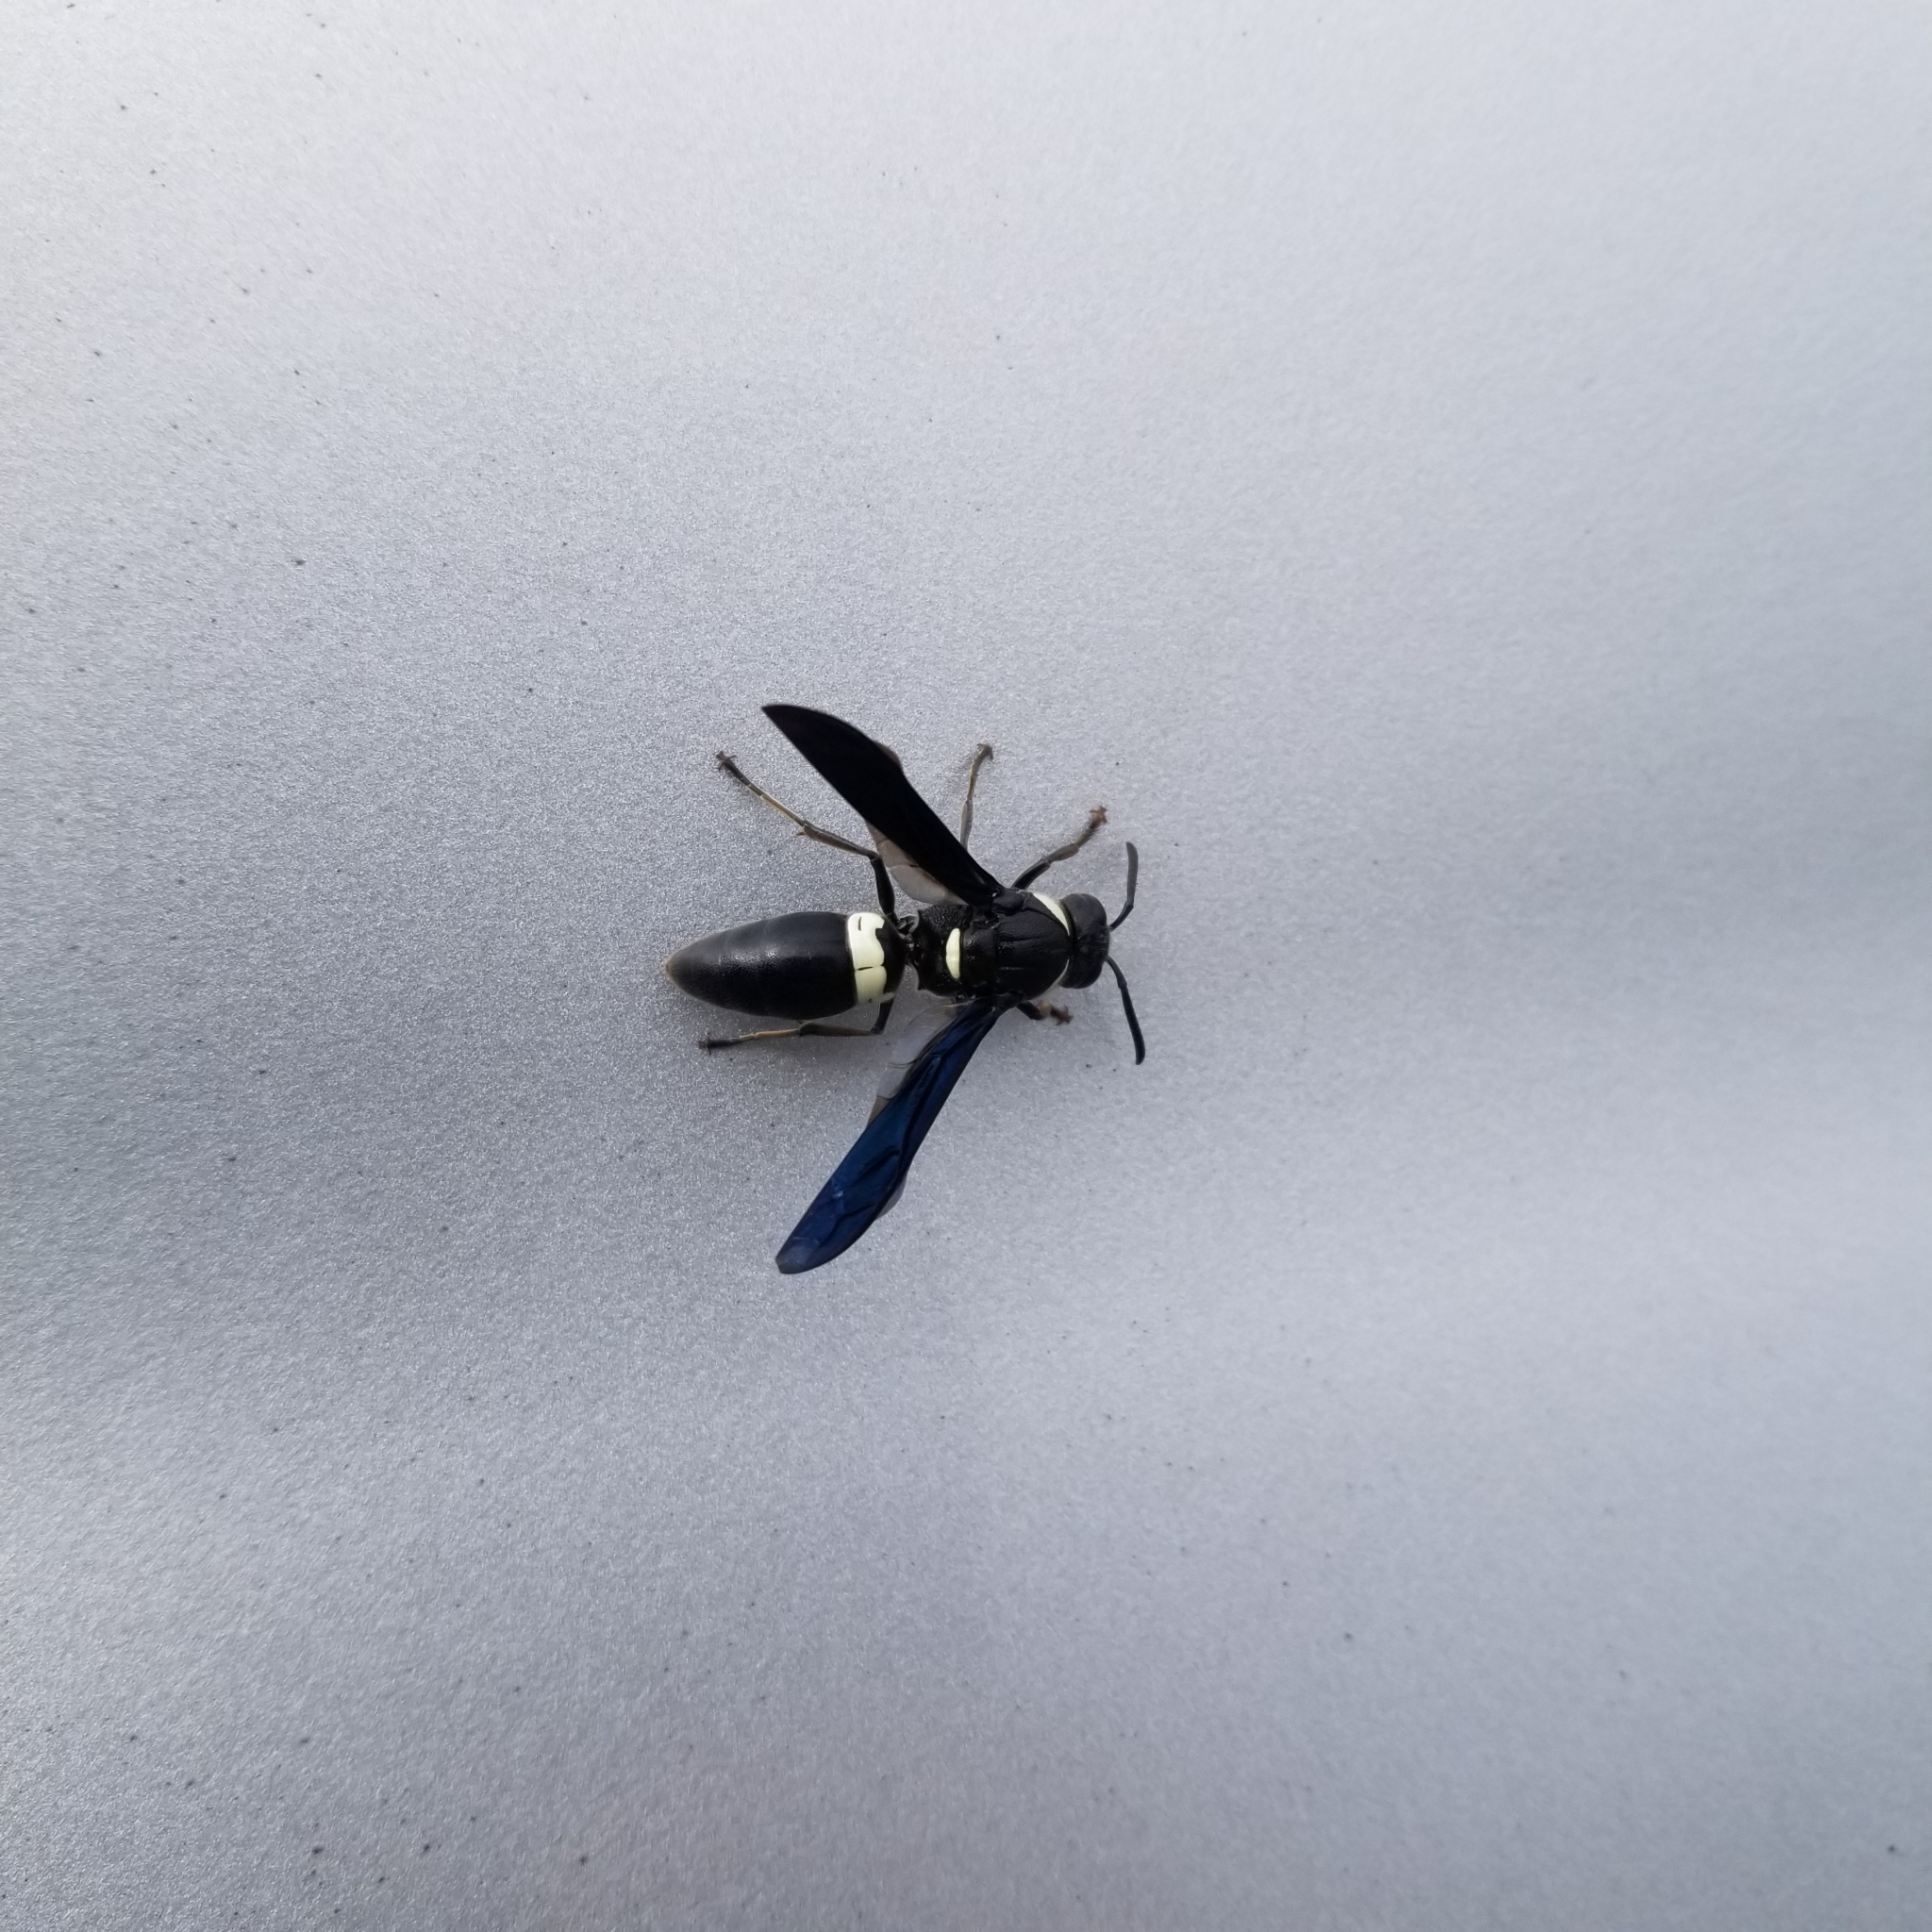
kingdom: Animalia
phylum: Arthropoda
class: Insecta
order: Hymenoptera
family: Eumenidae
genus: Monobia
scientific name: Monobia quadridens
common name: Four-toothed mason wasp
